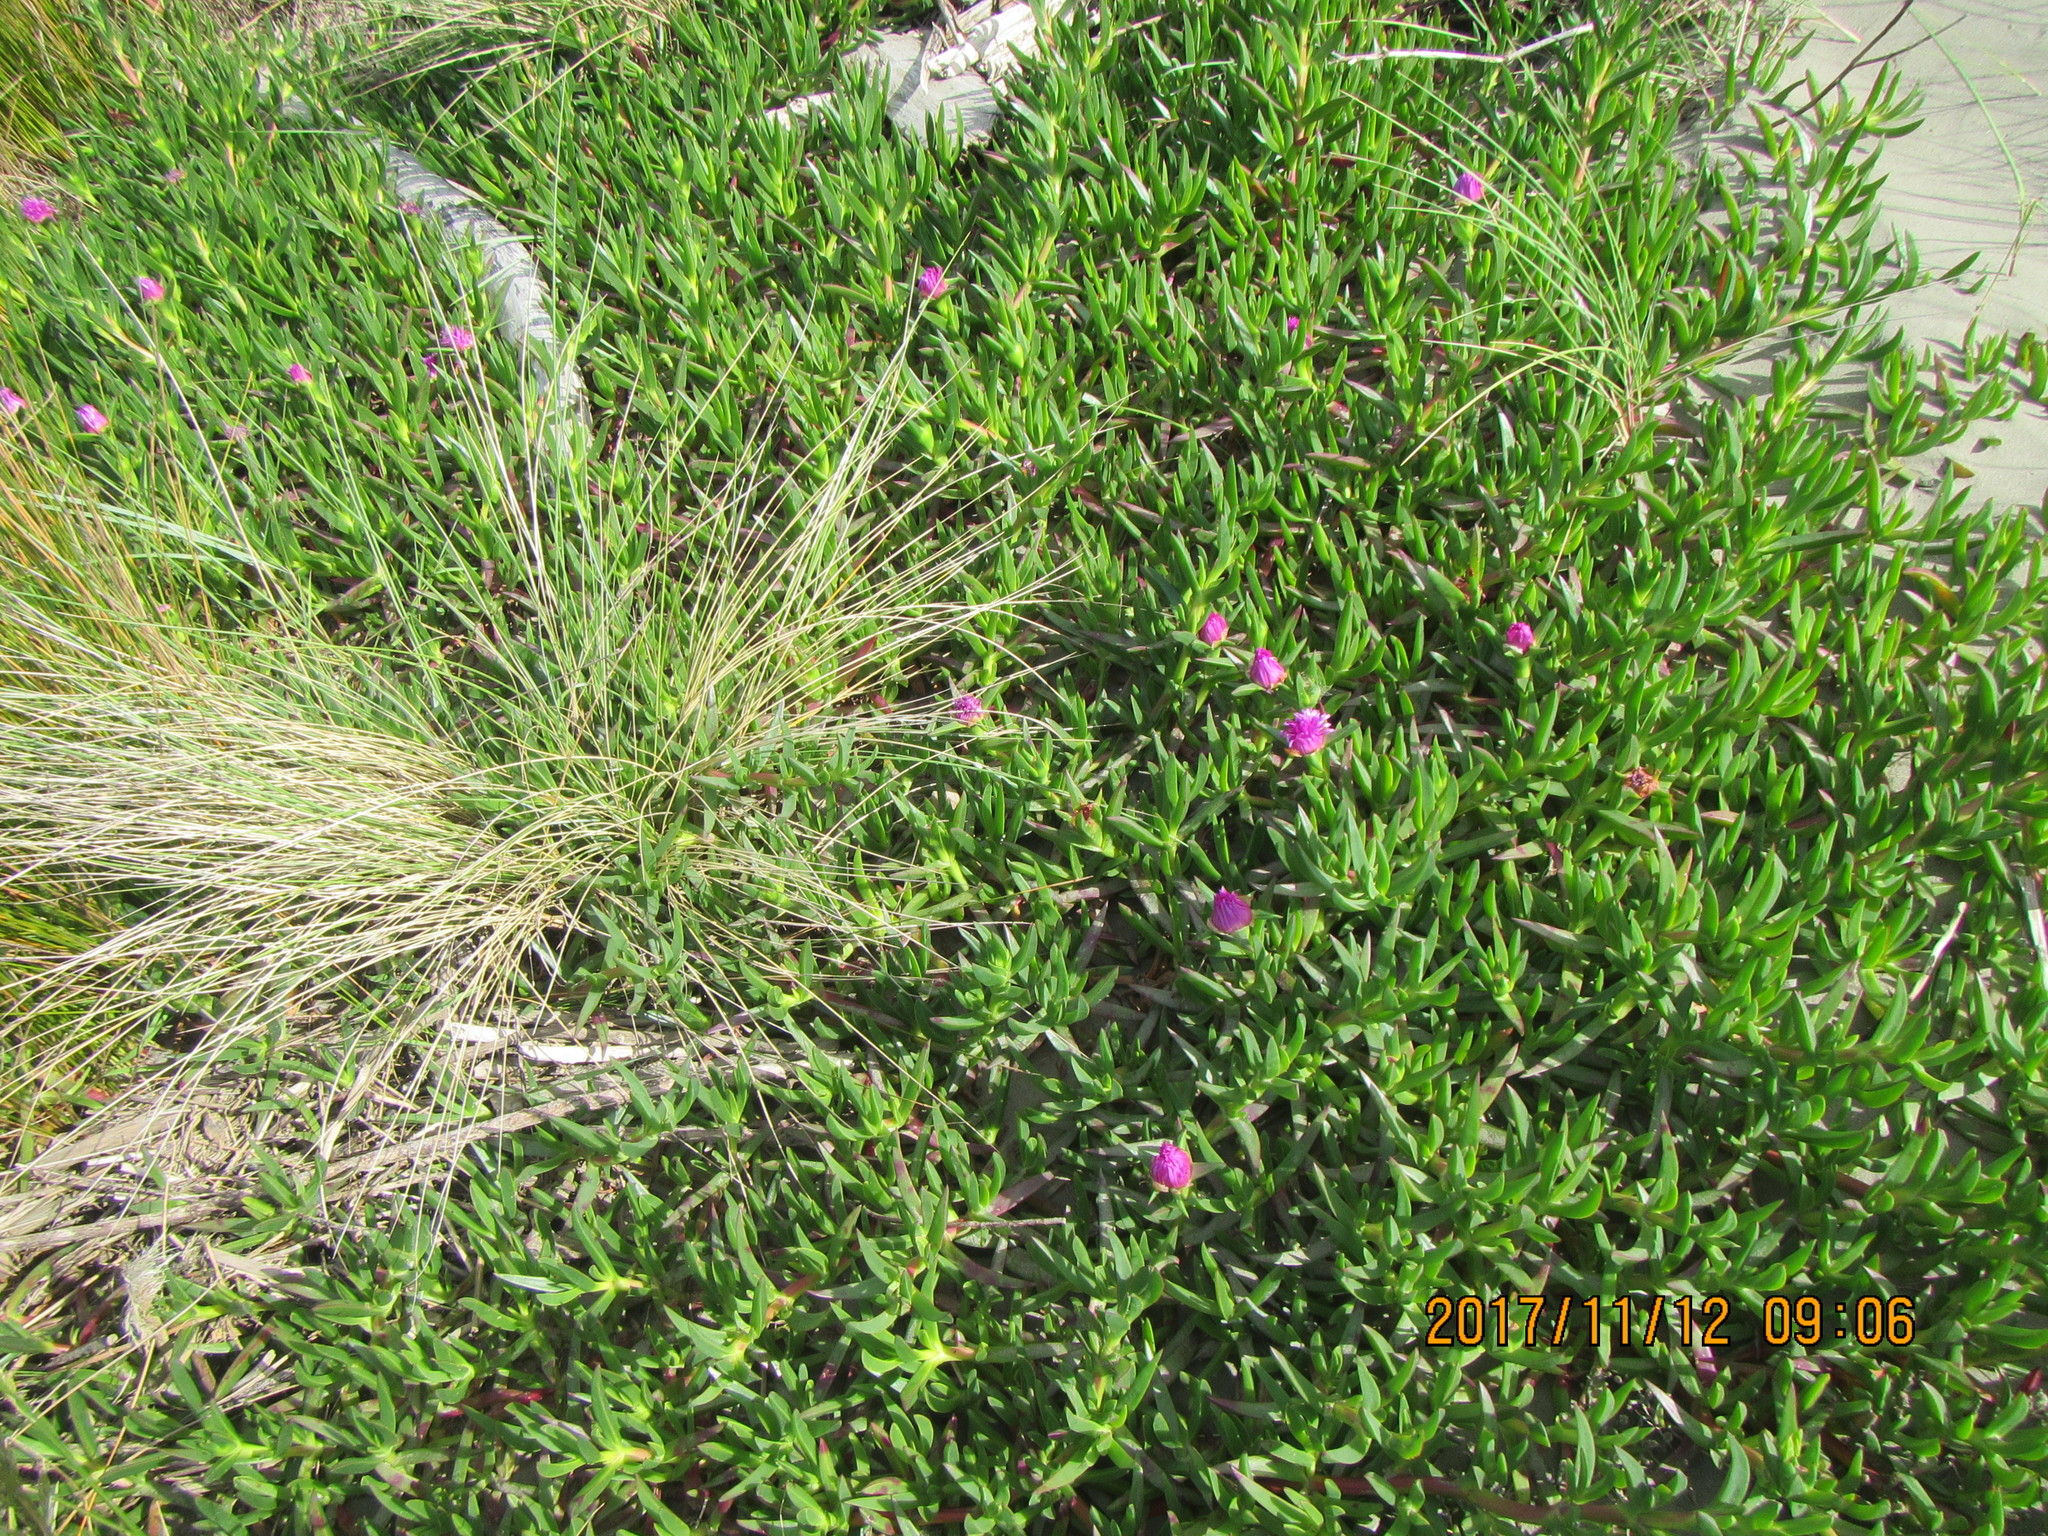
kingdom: Plantae
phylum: Tracheophyta
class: Magnoliopsida
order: Caryophyllales
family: Aizoaceae
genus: Carpobrotus
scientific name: Carpobrotus chilensis
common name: Sea fig
